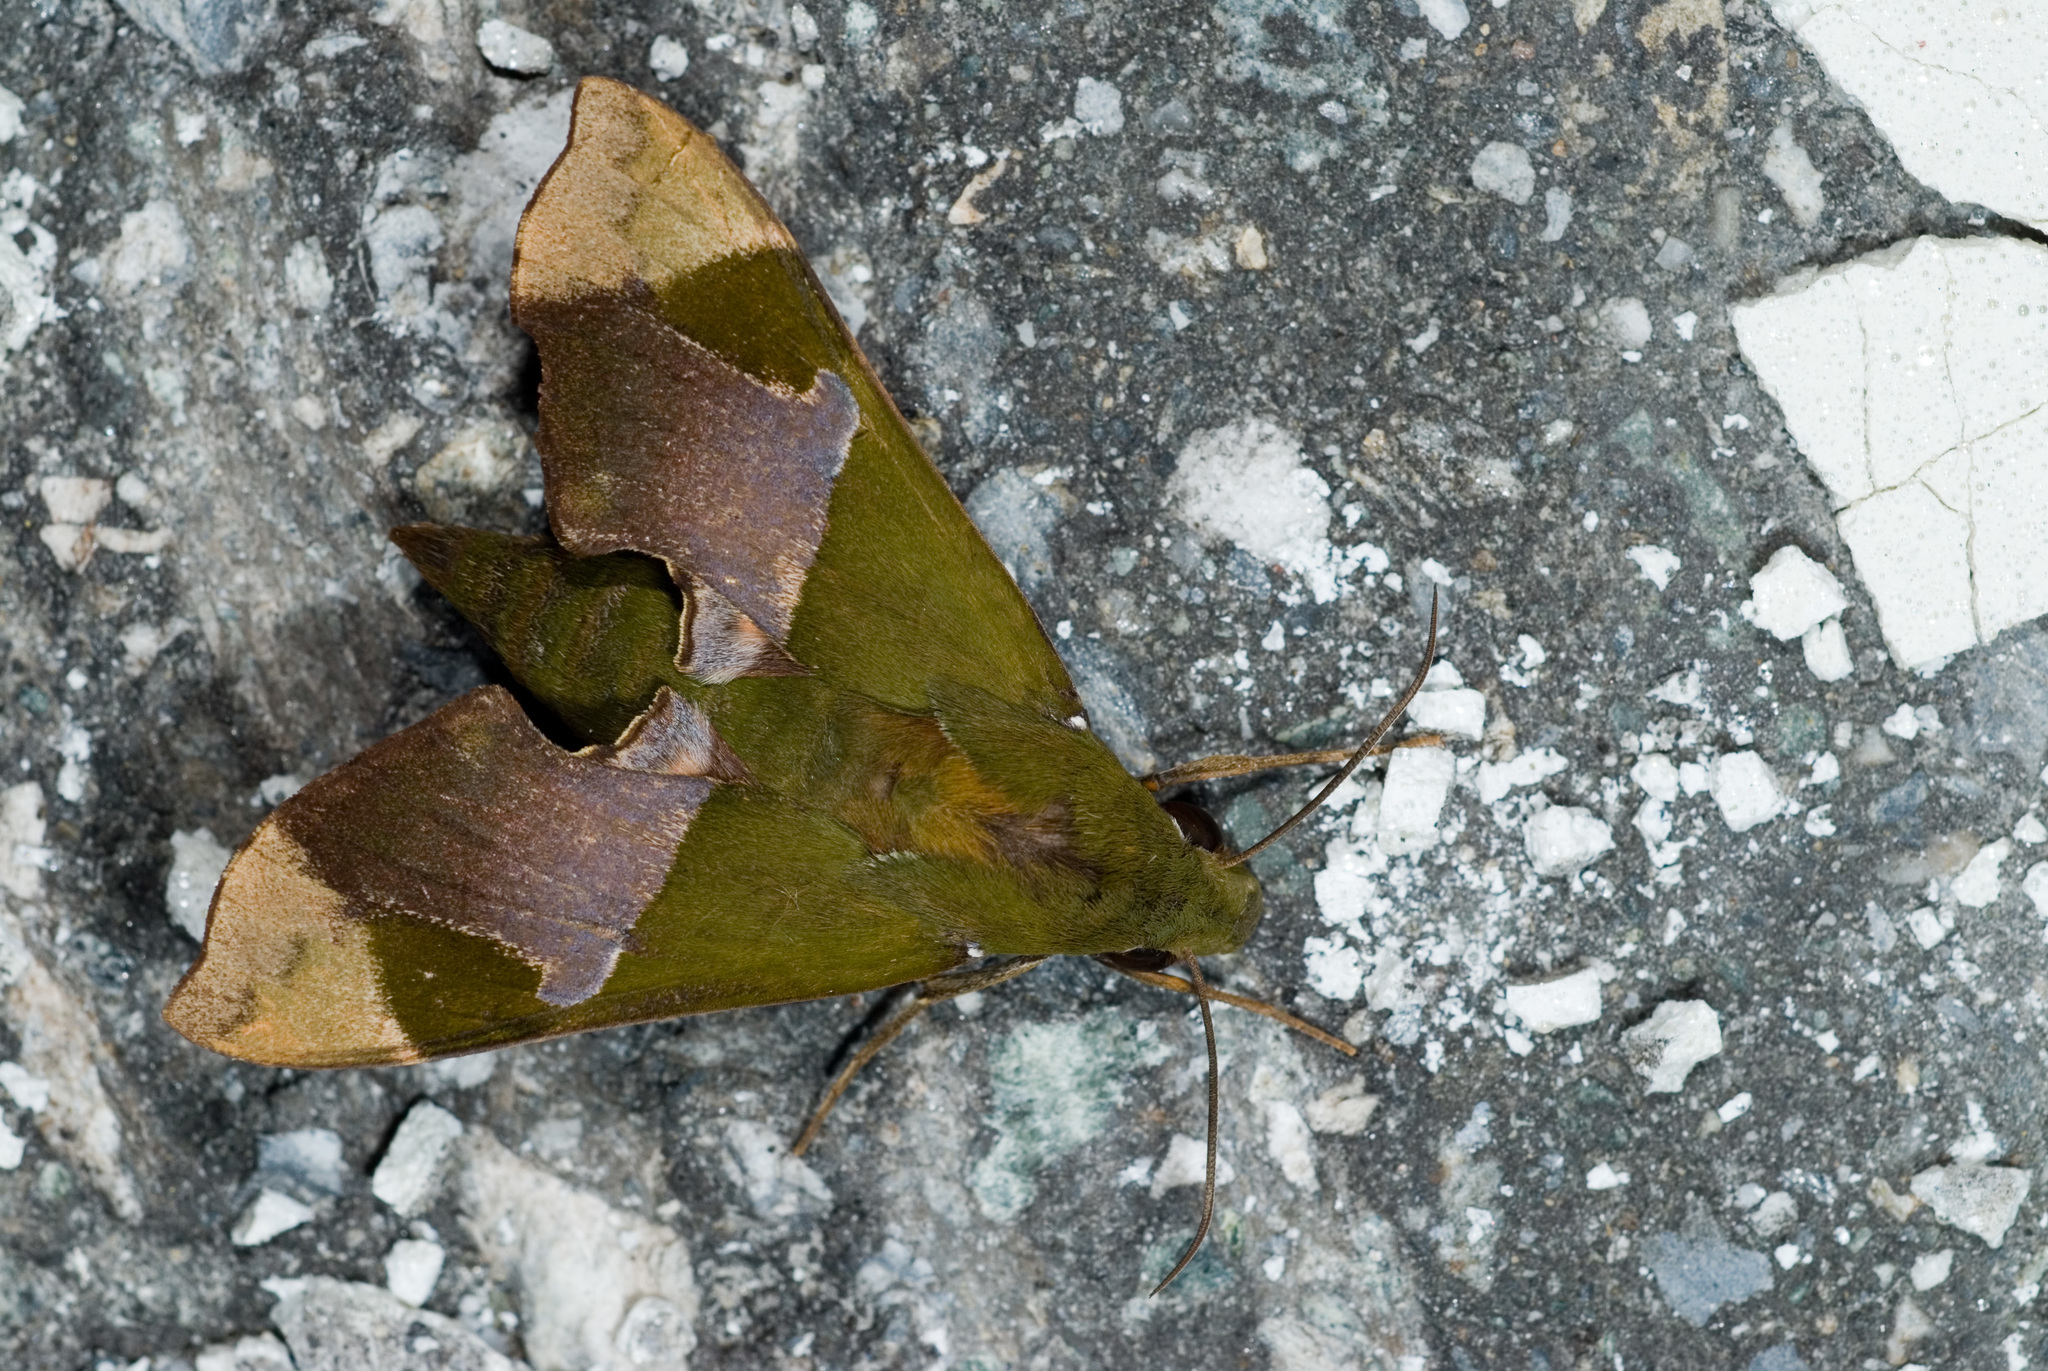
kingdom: Animalia
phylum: Arthropoda
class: Insecta
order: Lepidoptera
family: Sphingidae
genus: Angonyx
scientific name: Angonyx testacea
